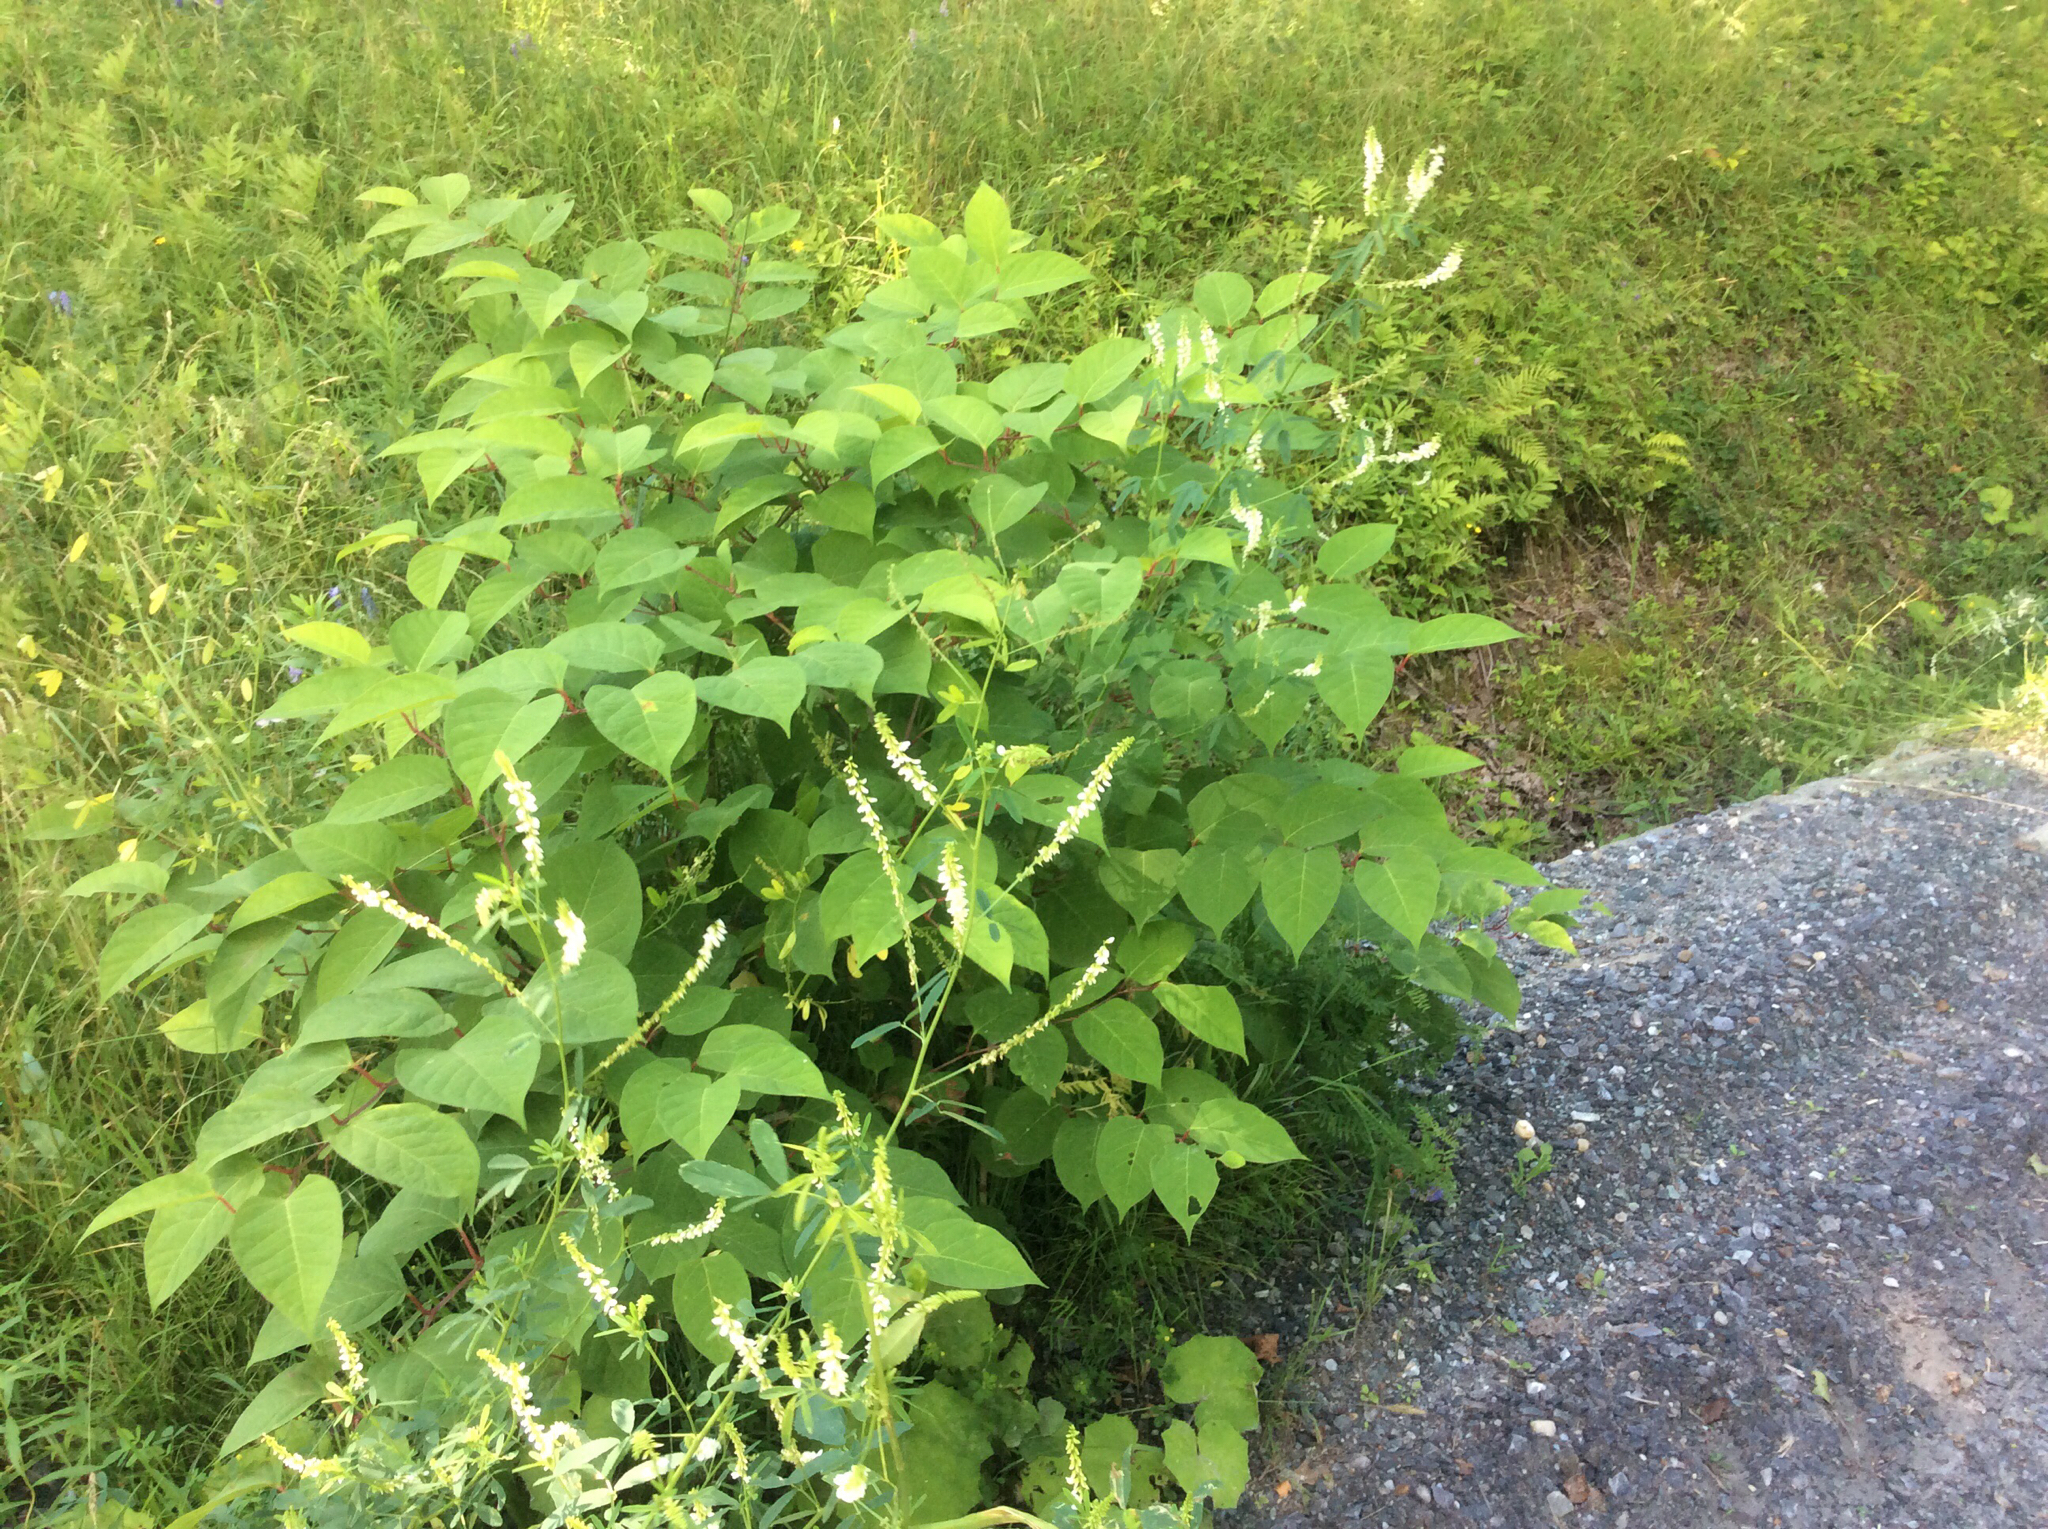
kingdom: Plantae
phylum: Tracheophyta
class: Magnoliopsida
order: Caryophyllales
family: Polygonaceae
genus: Reynoutria
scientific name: Reynoutria japonica
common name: Japanese knotweed
